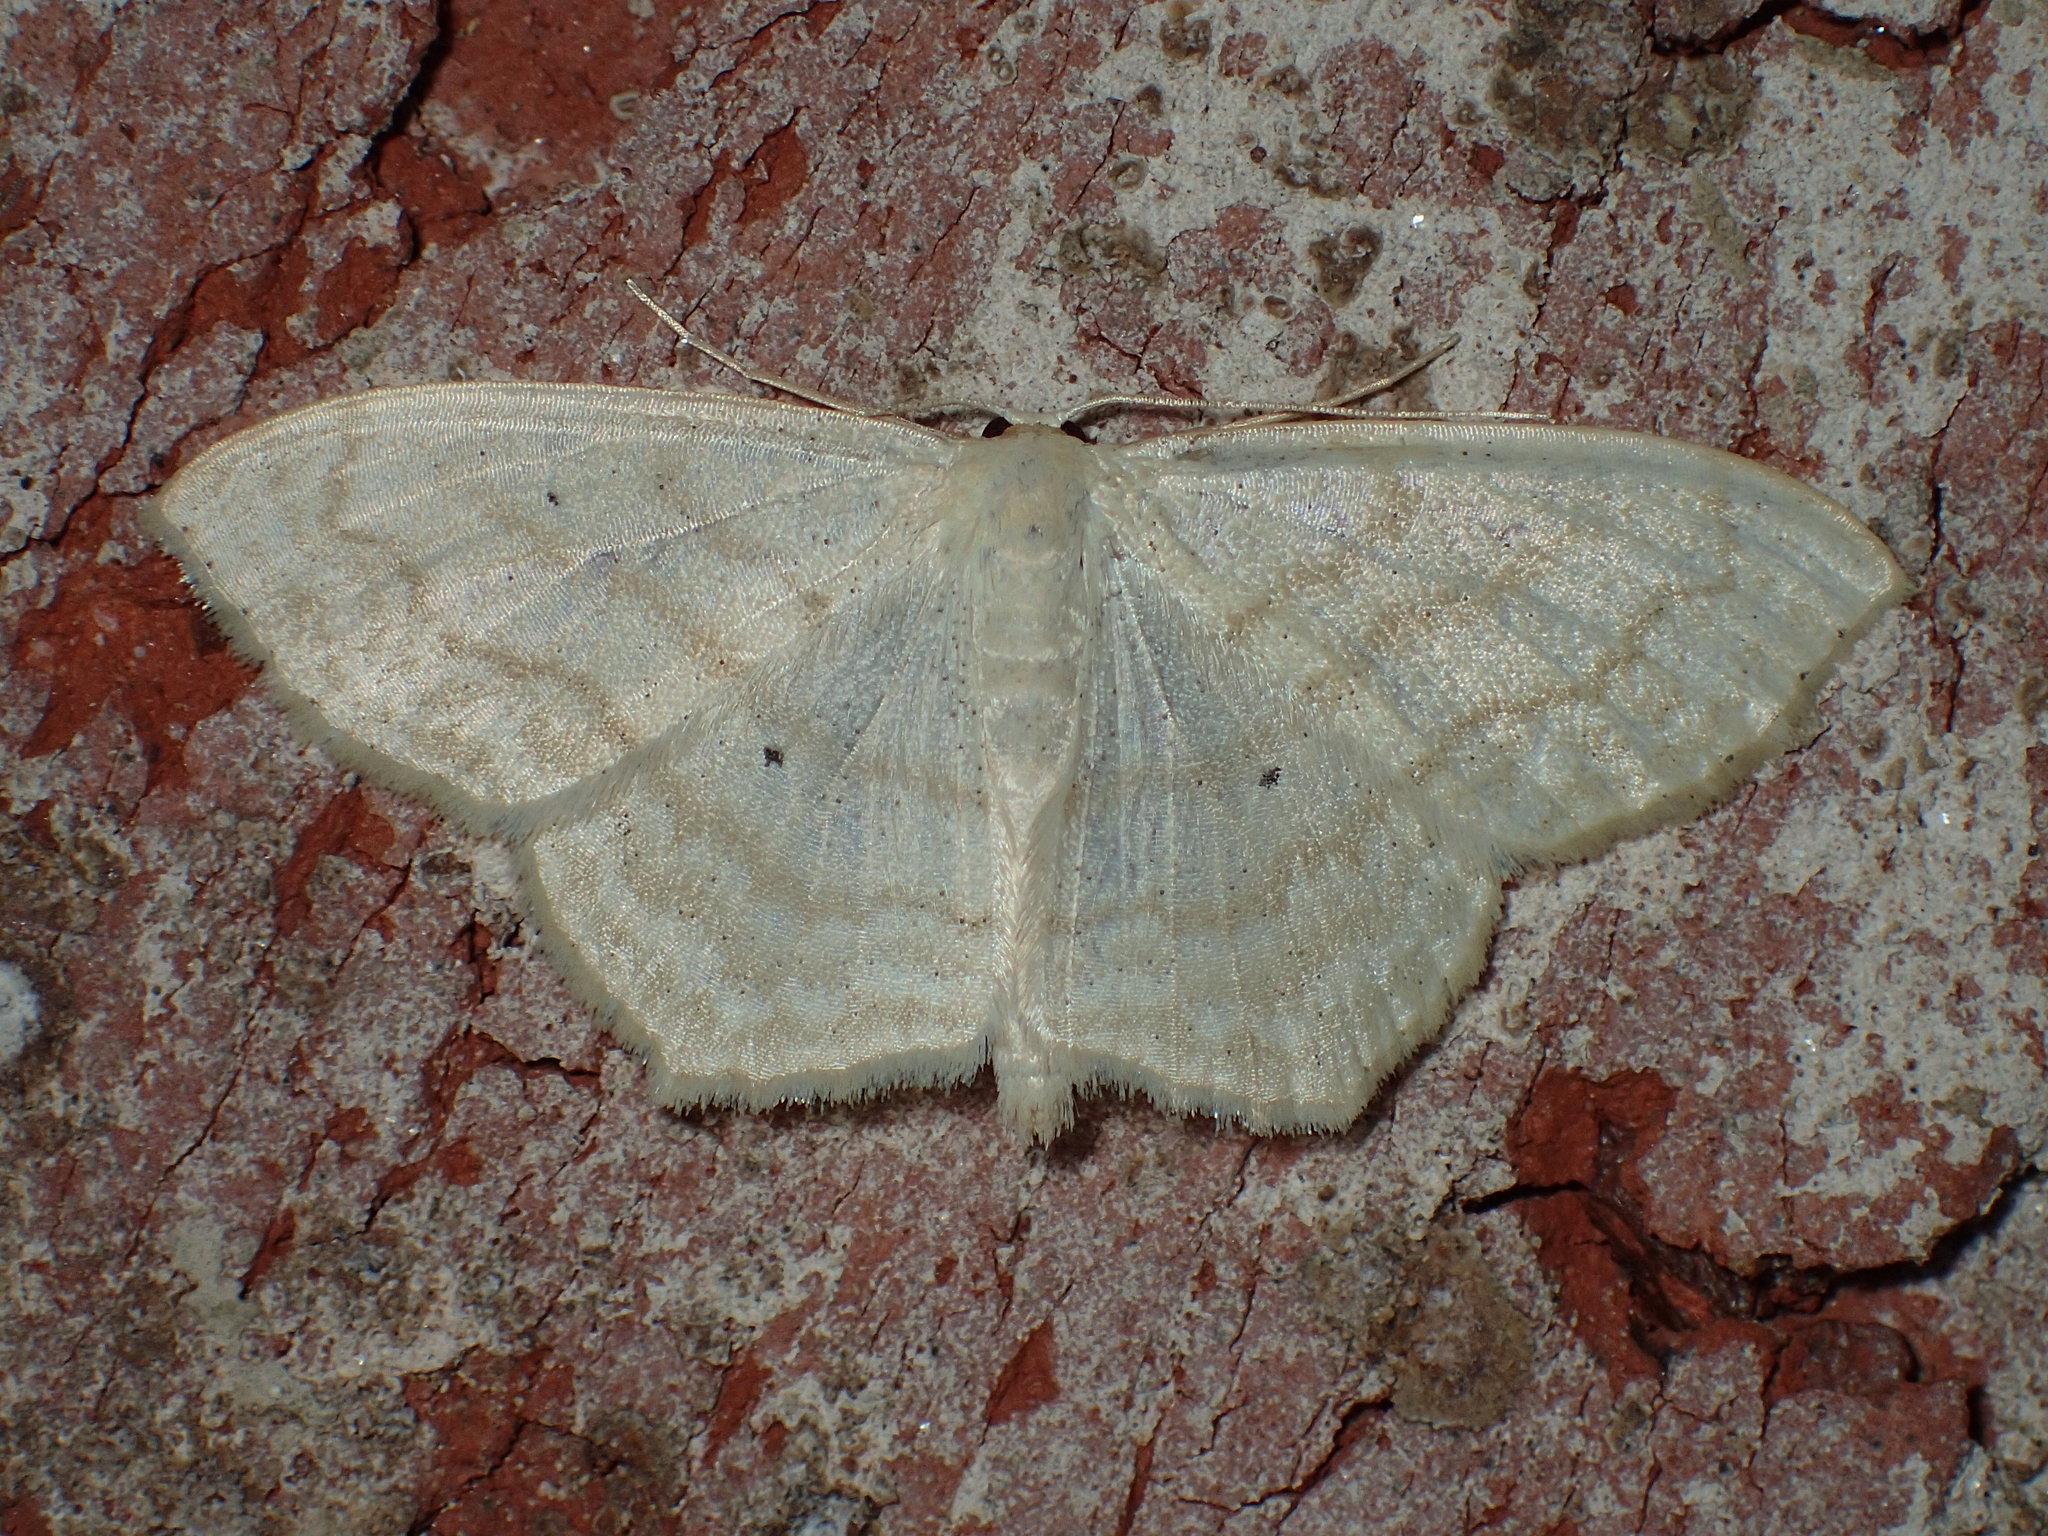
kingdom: Animalia
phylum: Arthropoda
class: Insecta
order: Lepidoptera
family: Geometridae
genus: Scopula
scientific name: Scopula limboundata
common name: Large lace border
